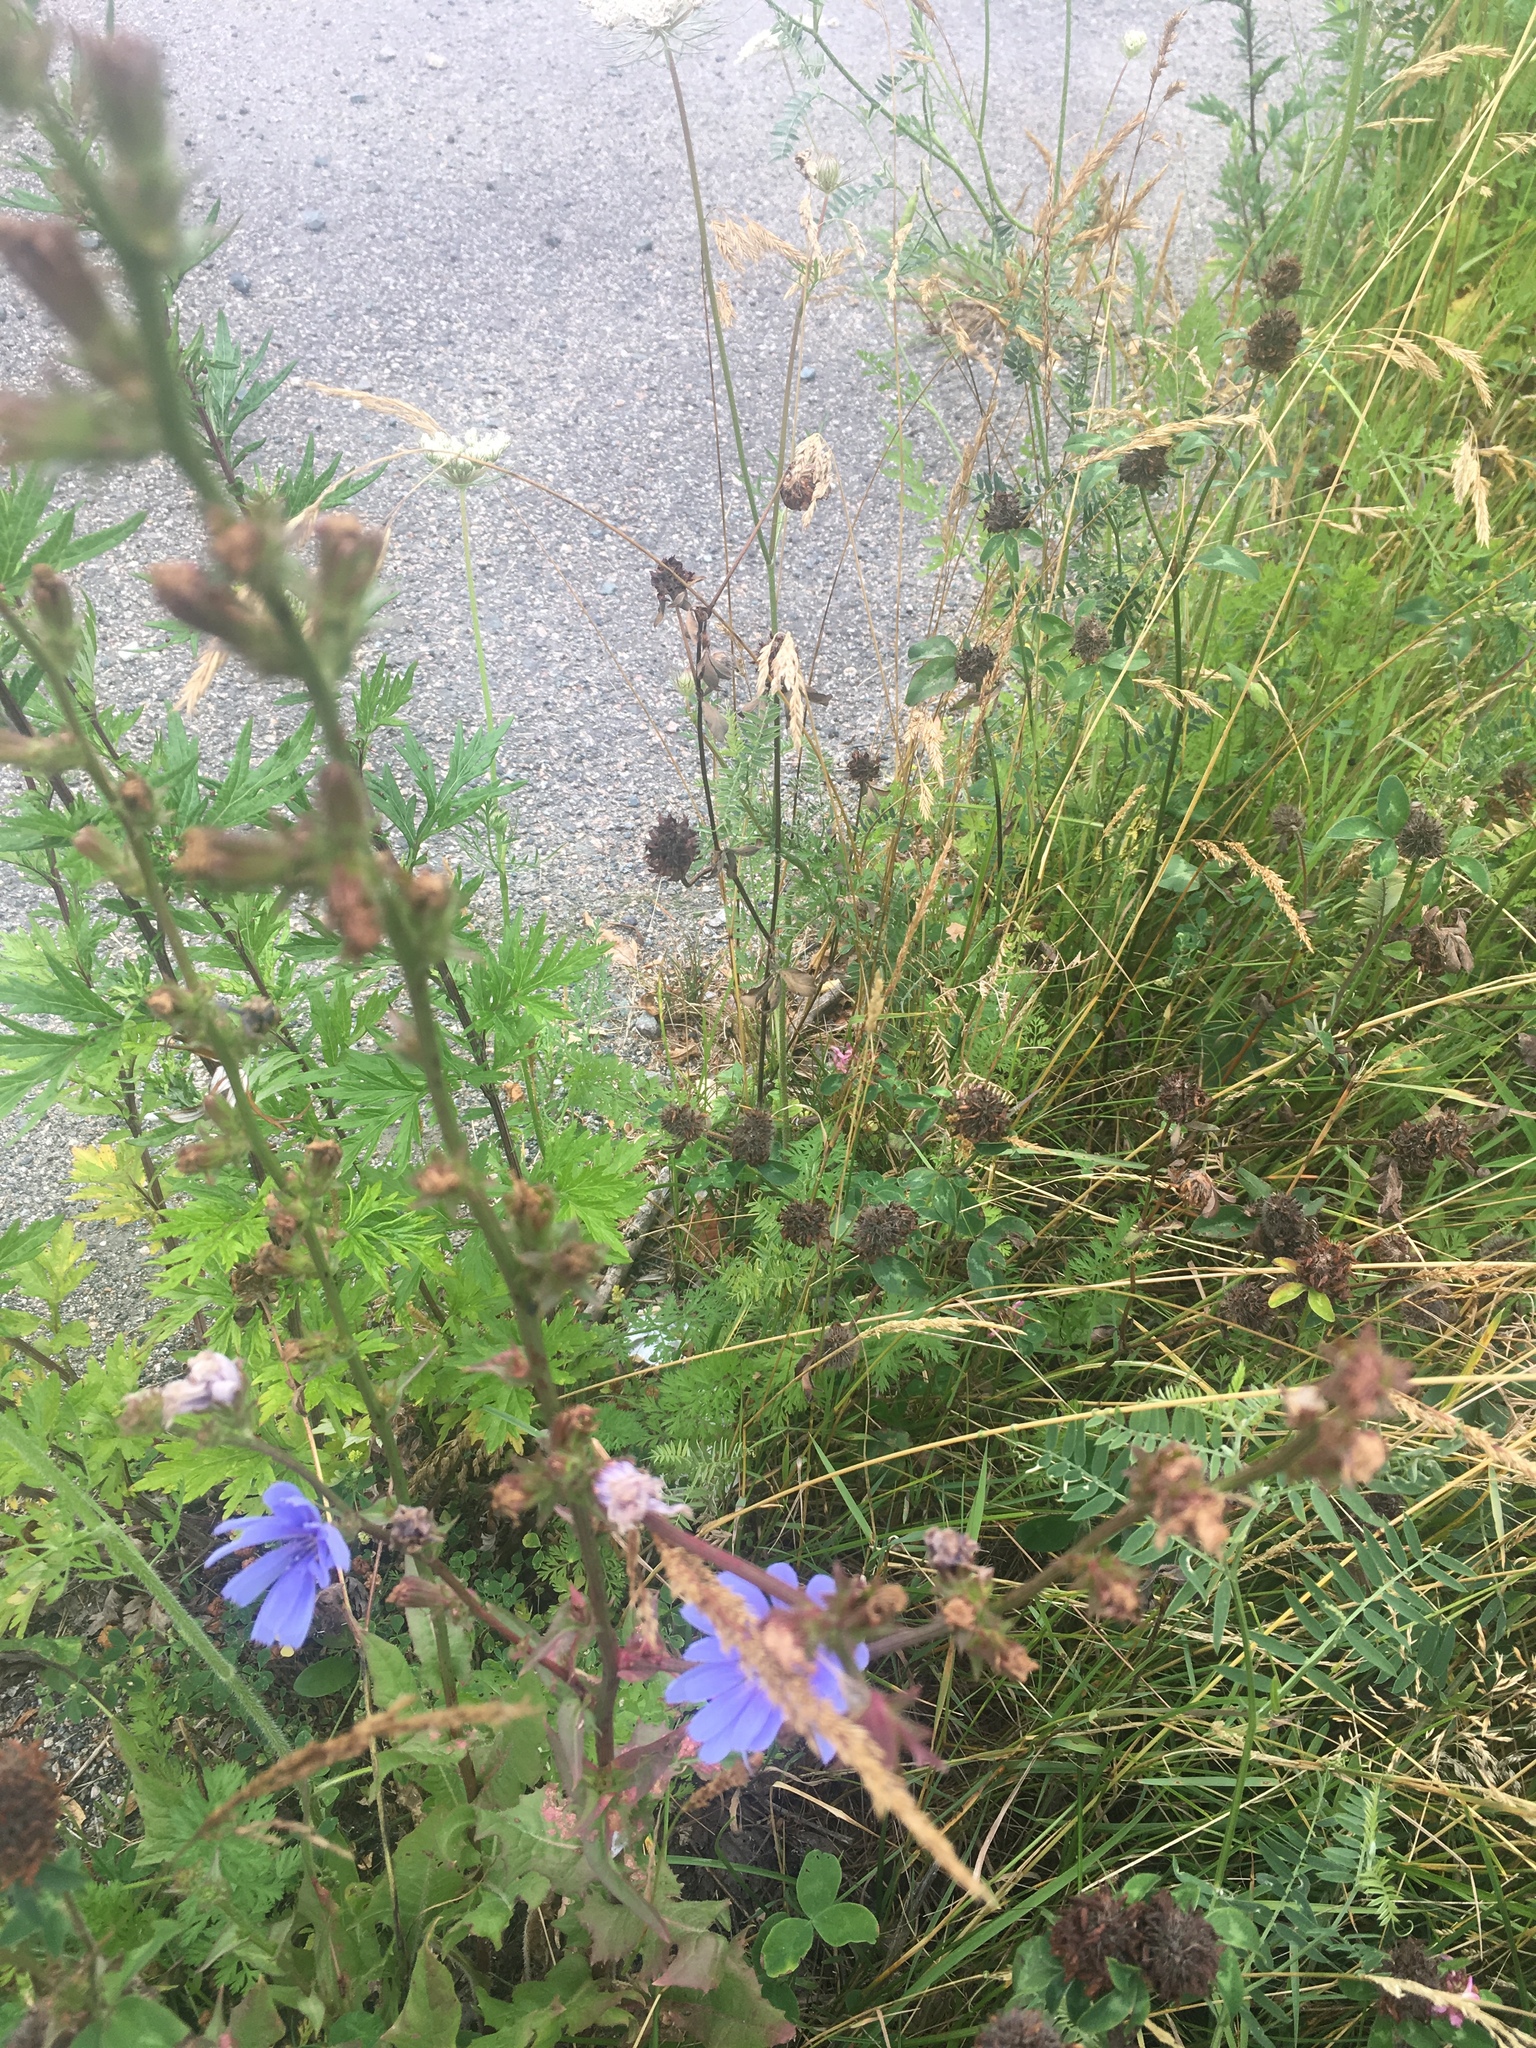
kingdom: Plantae
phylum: Tracheophyta
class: Magnoliopsida
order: Asterales
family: Asteraceae
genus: Cichorium
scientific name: Cichorium intybus
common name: Chicory
